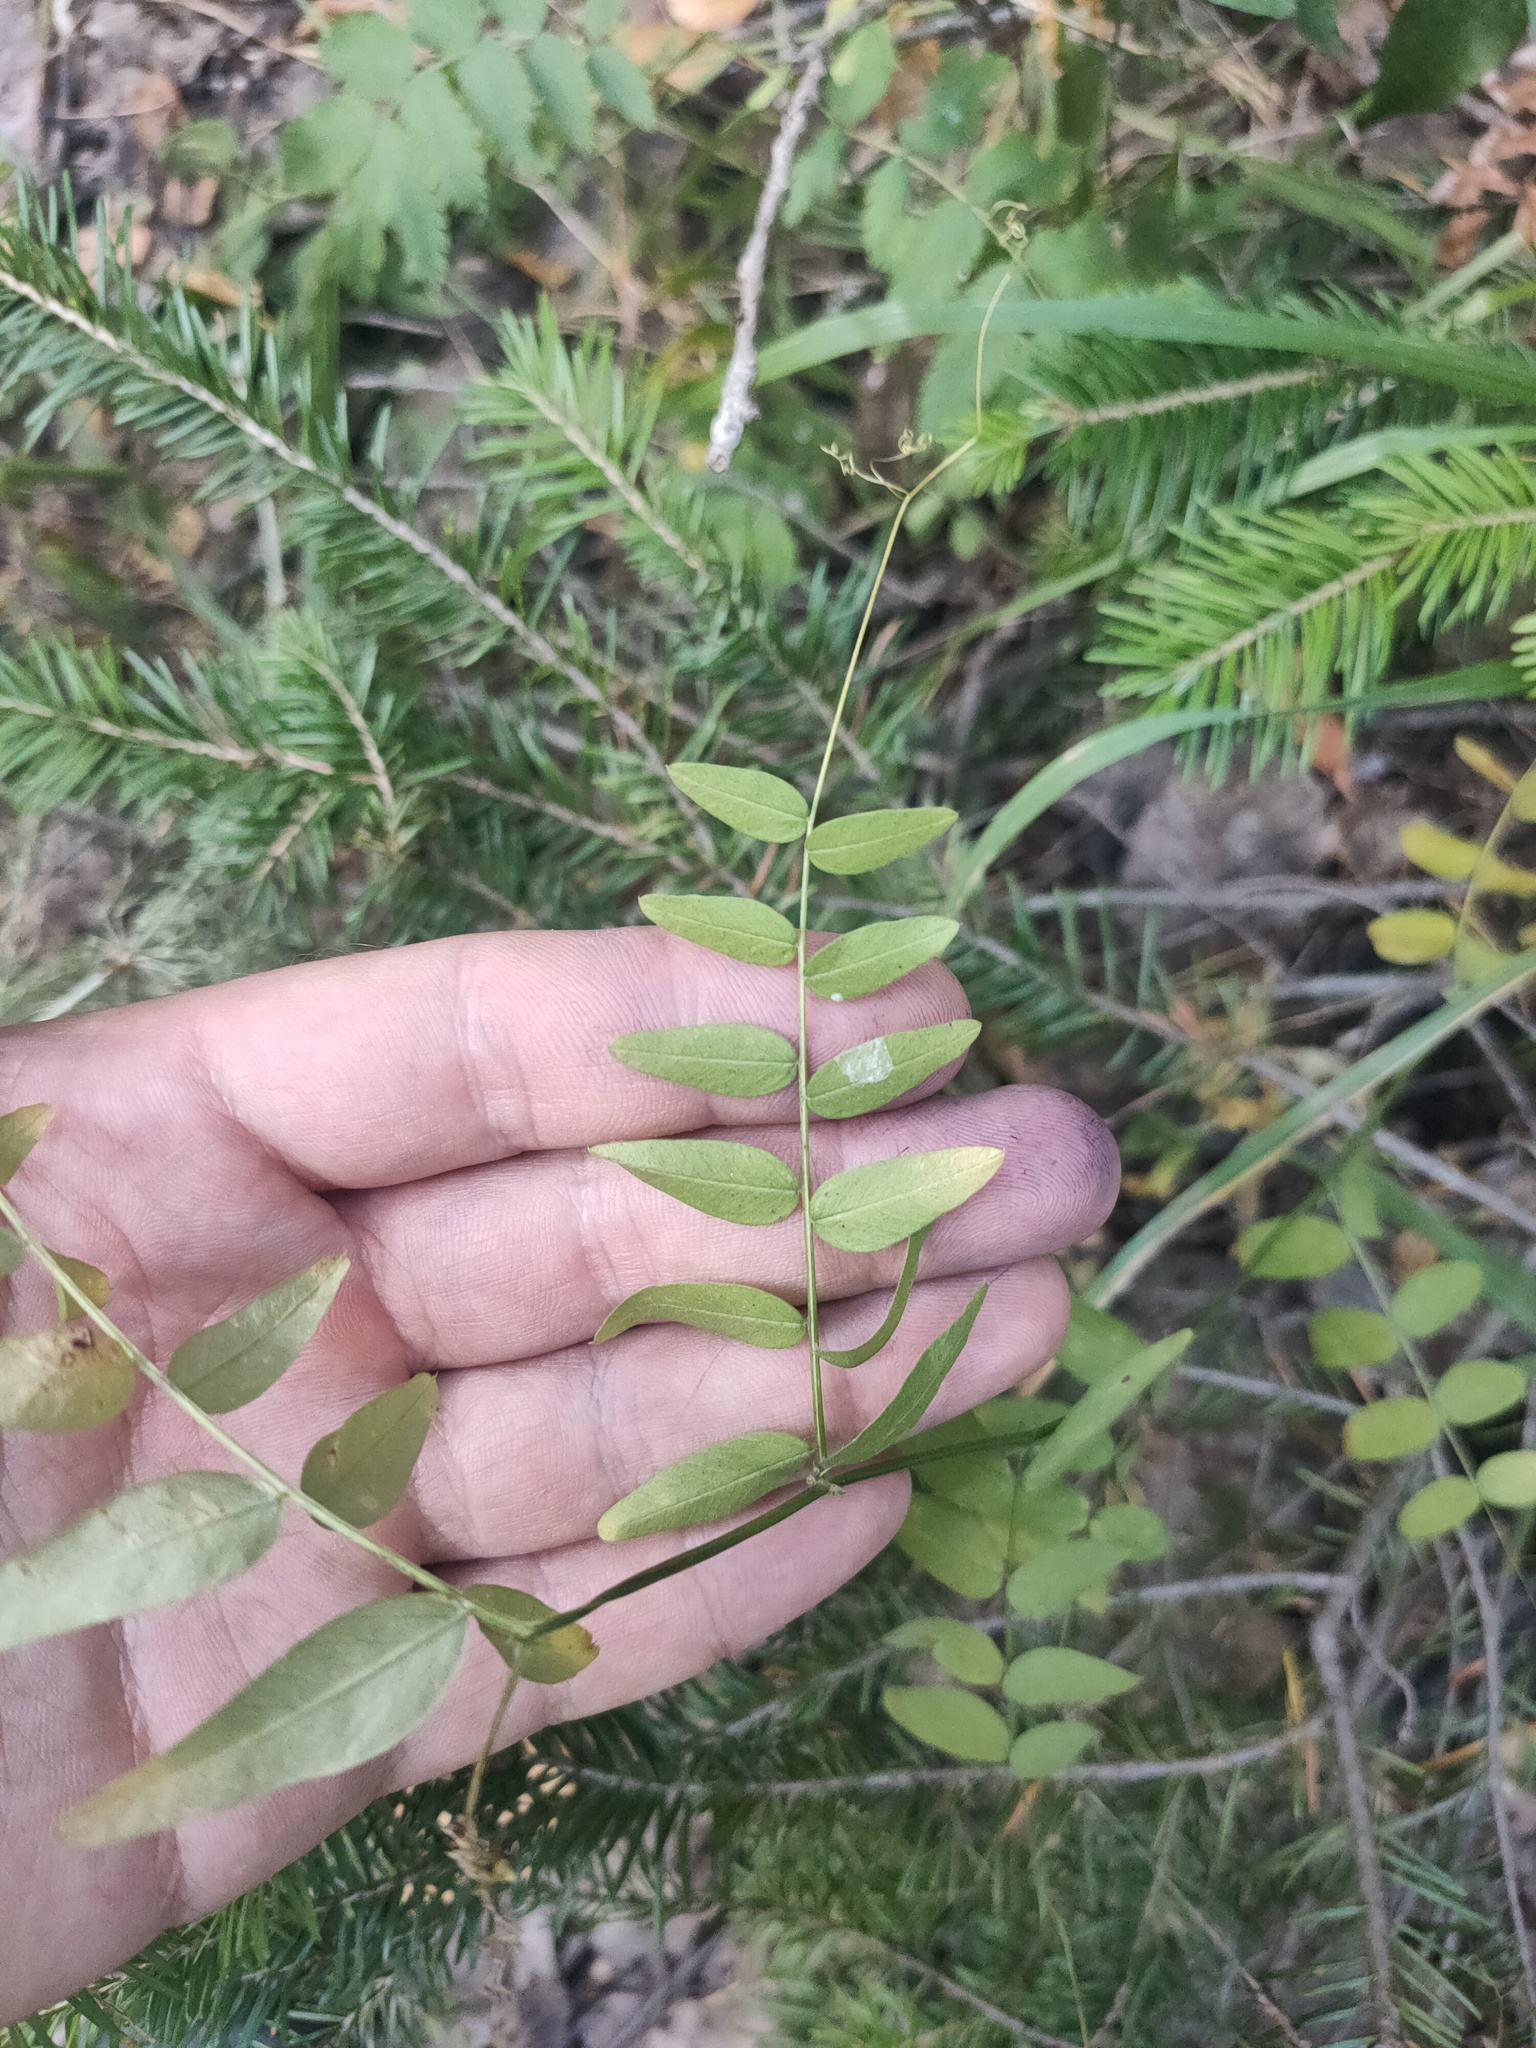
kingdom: Plantae
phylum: Tracheophyta
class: Magnoliopsida
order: Fabales
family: Fabaceae
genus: Vicia
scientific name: Vicia sepium
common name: Bush vetch
